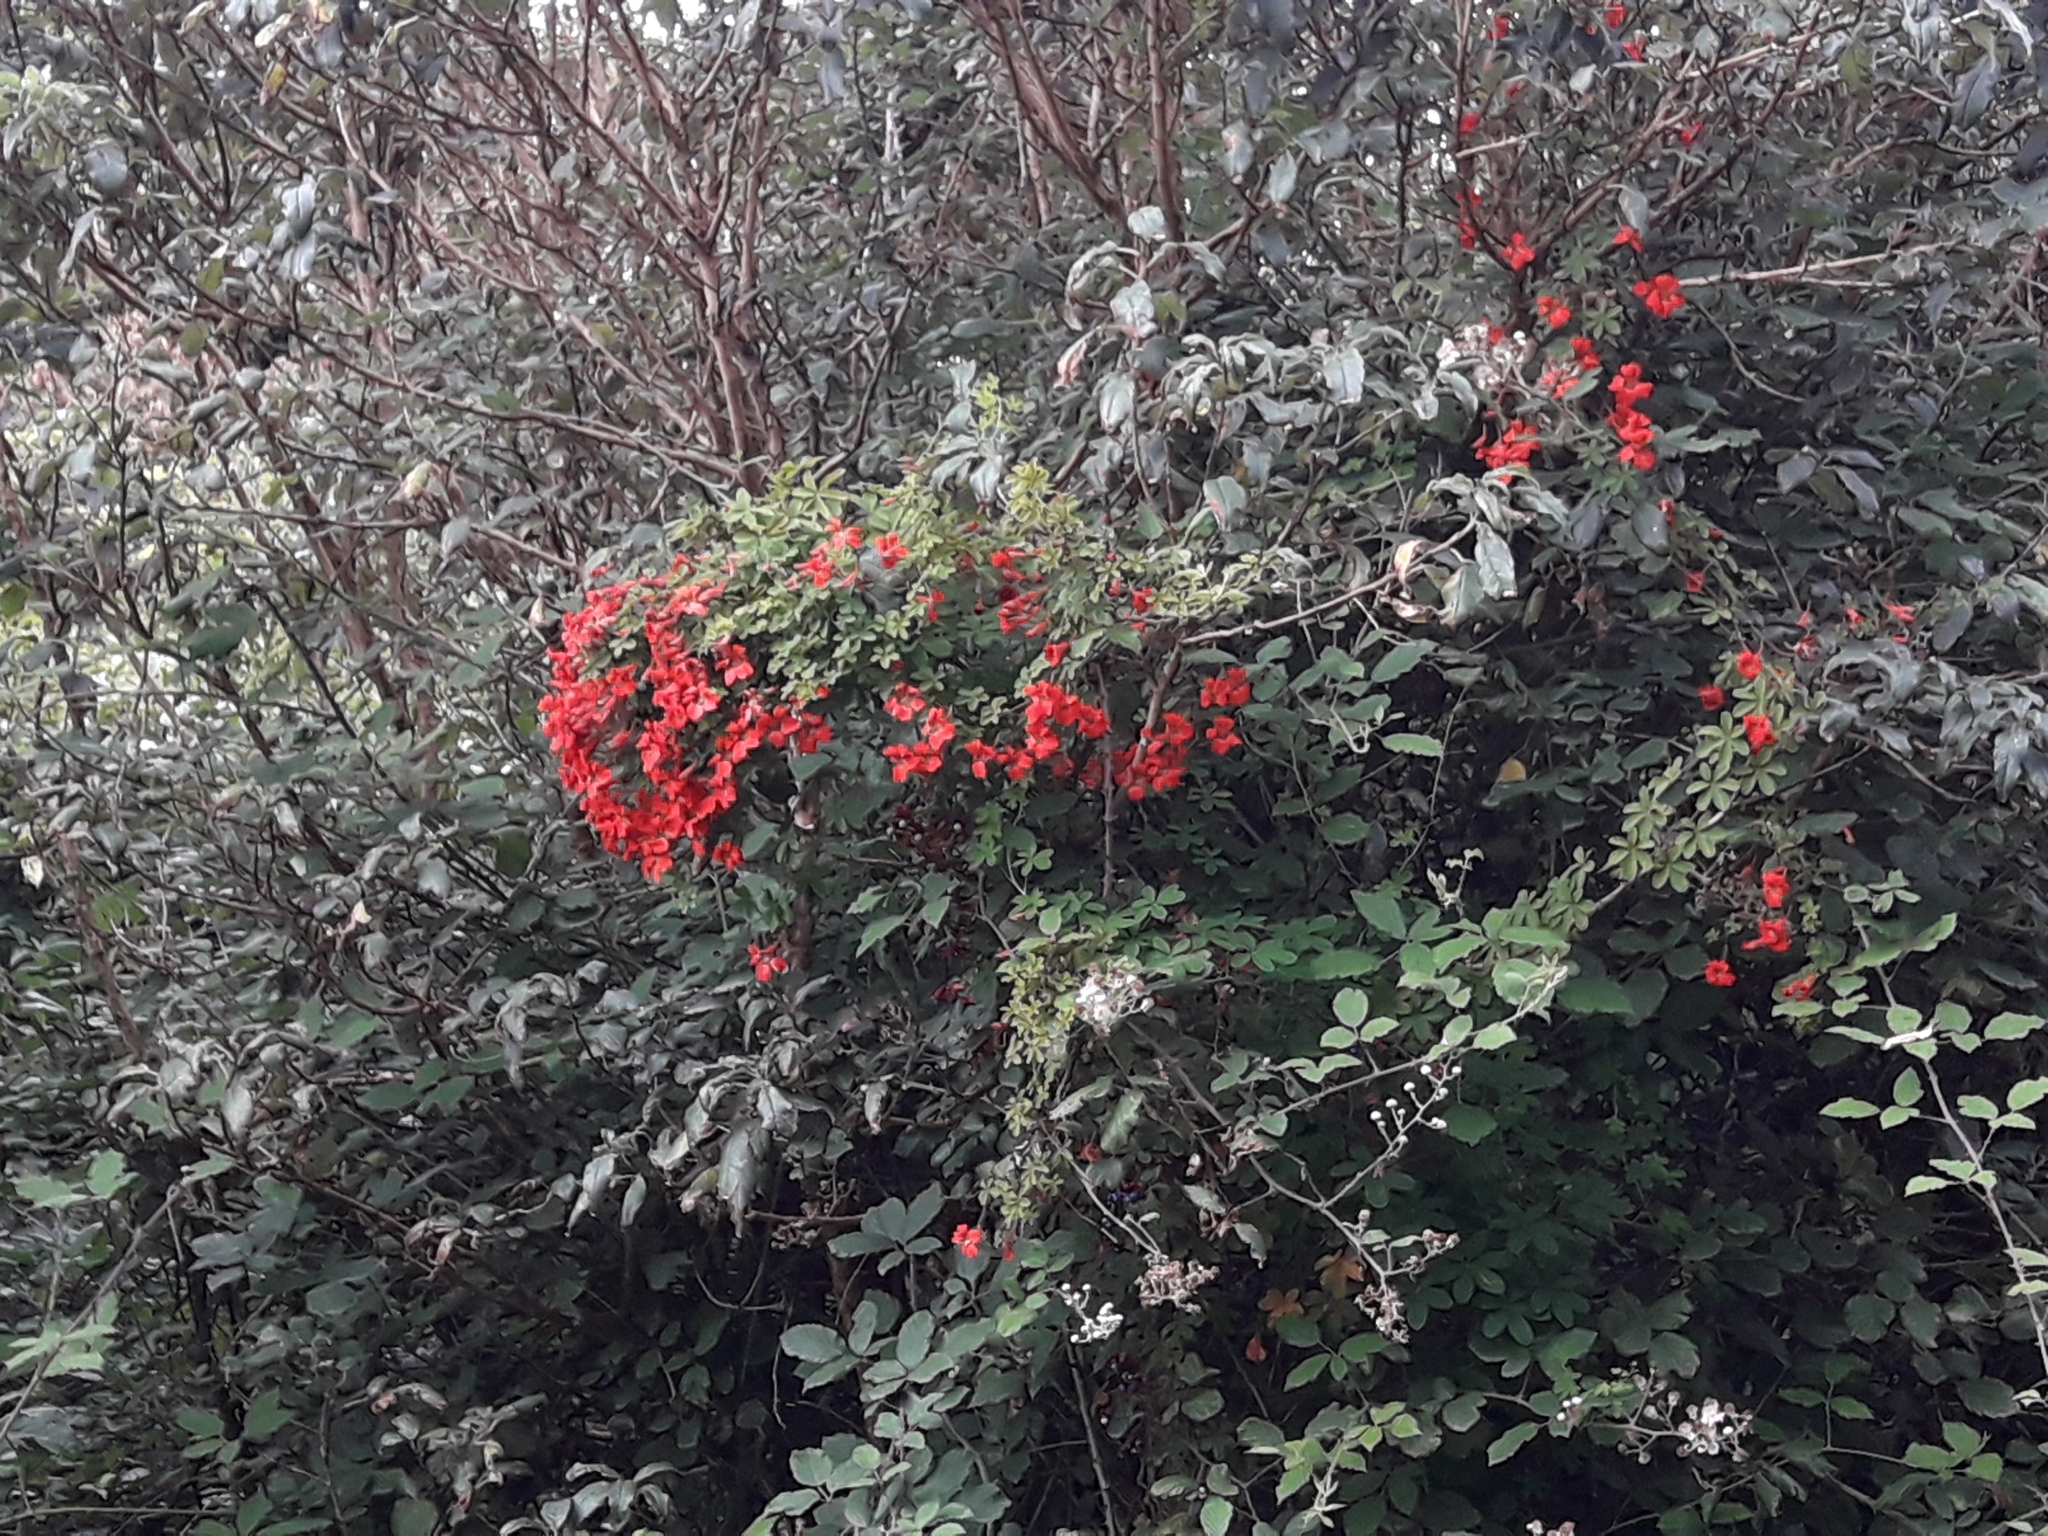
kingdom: Plantae
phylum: Tracheophyta
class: Magnoliopsida
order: Brassicales
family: Tropaeolaceae
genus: Tropaeolum
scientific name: Tropaeolum speciosum
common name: Flame nasturtium
